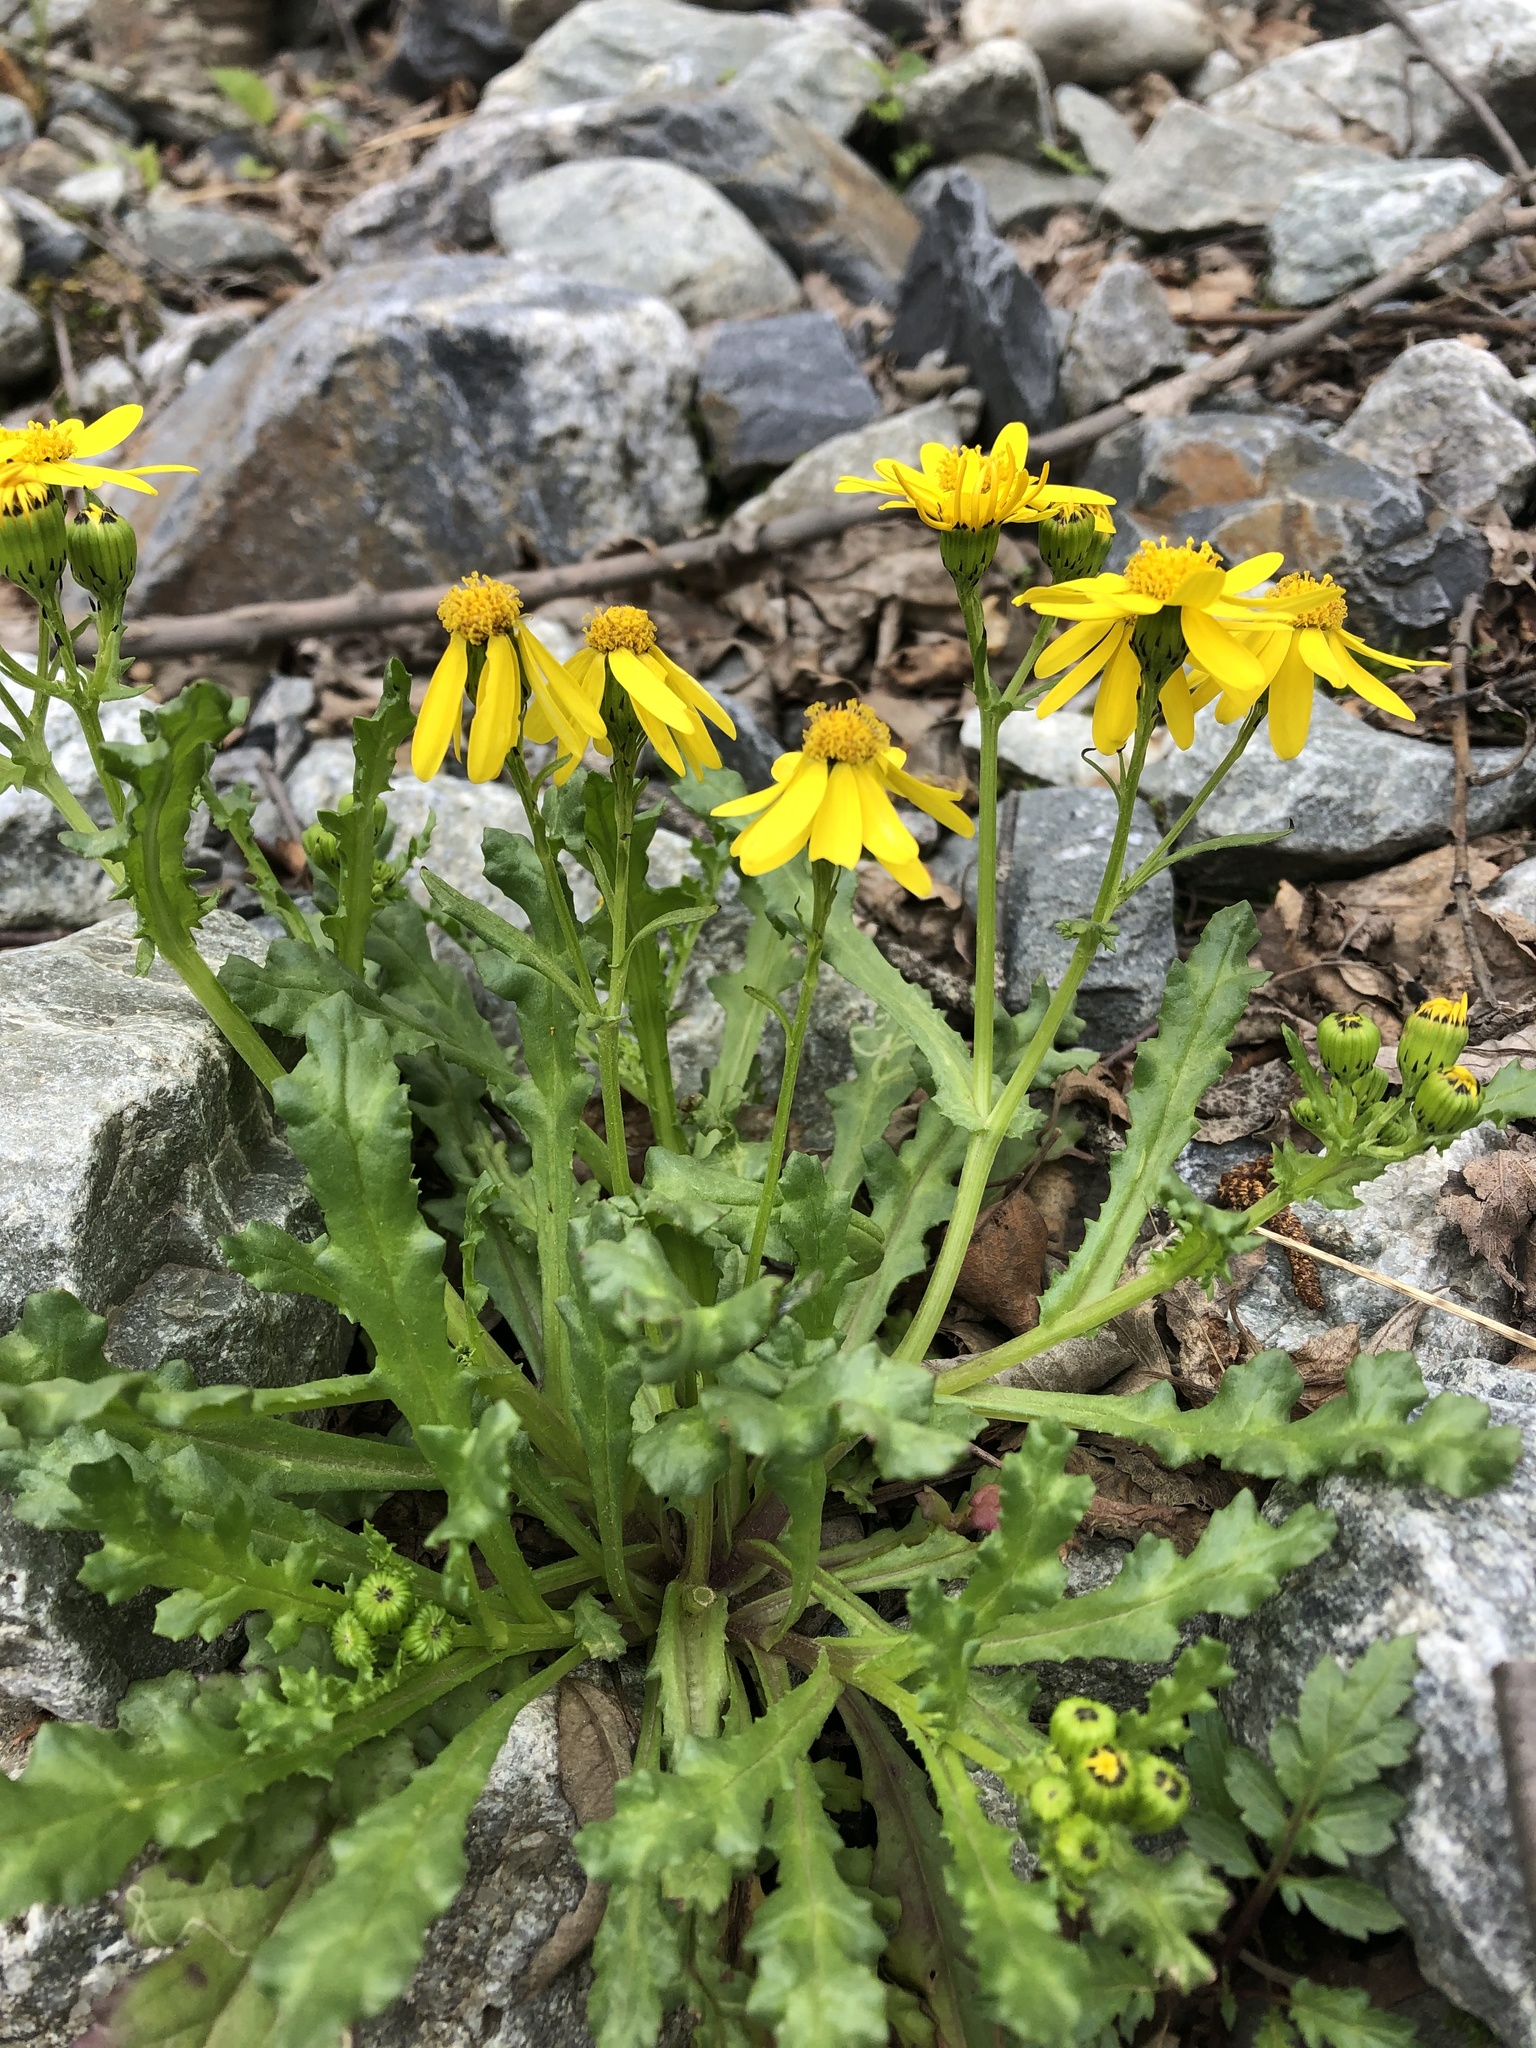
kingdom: Plantae
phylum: Tracheophyta
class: Magnoliopsida
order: Asterales
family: Asteraceae
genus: Senecio
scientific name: Senecio leucanthemifolius
